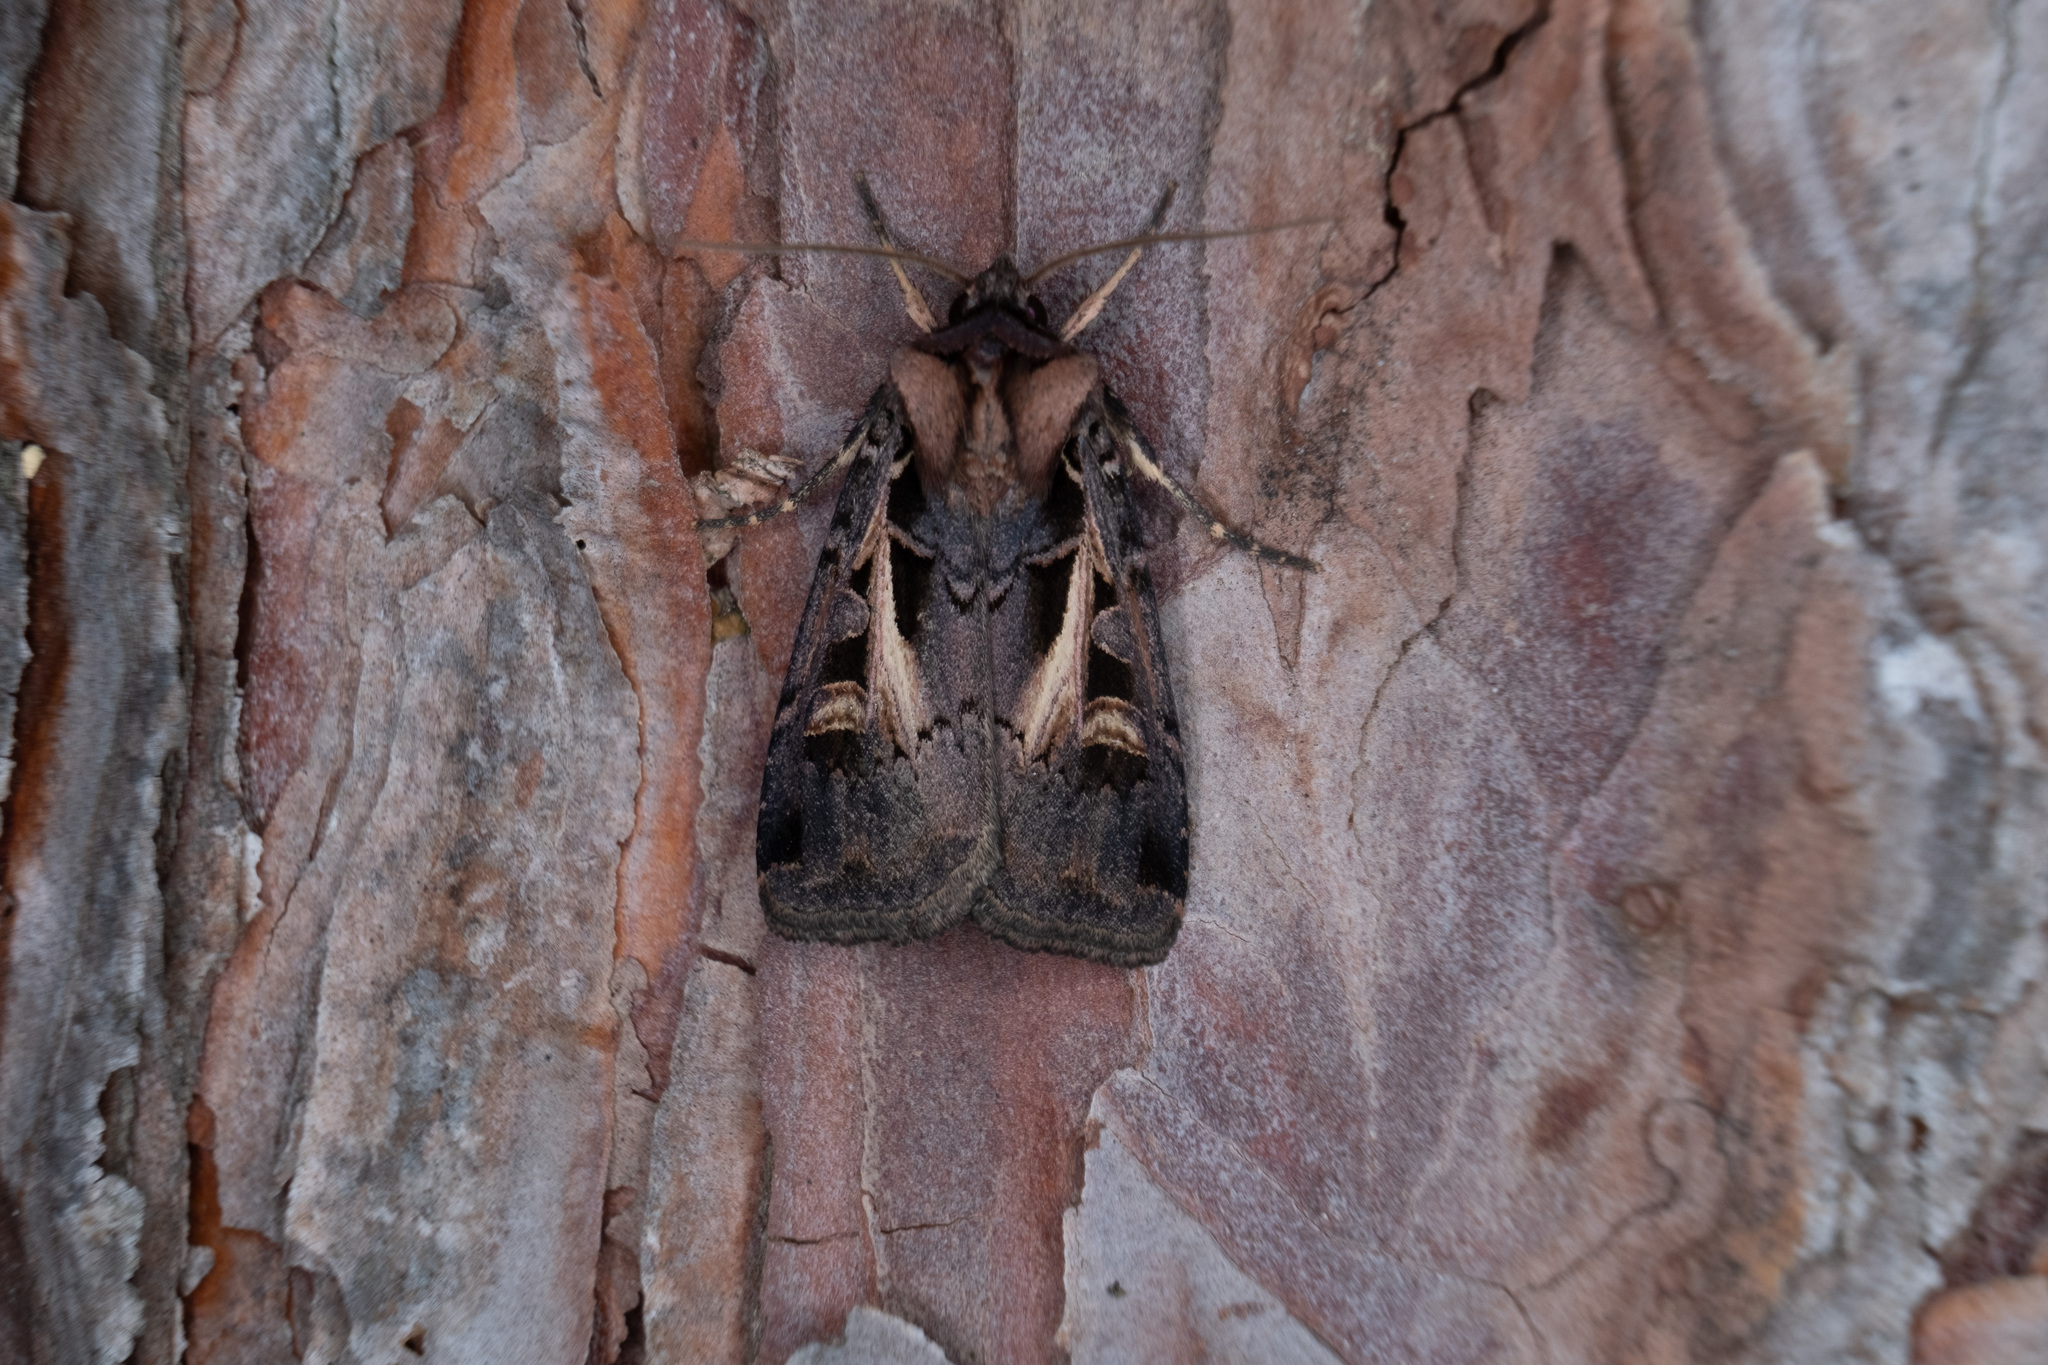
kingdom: Animalia
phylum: Arthropoda
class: Insecta
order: Lepidoptera
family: Noctuidae
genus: Feltia
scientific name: Feltia herilis
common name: Master's dart
